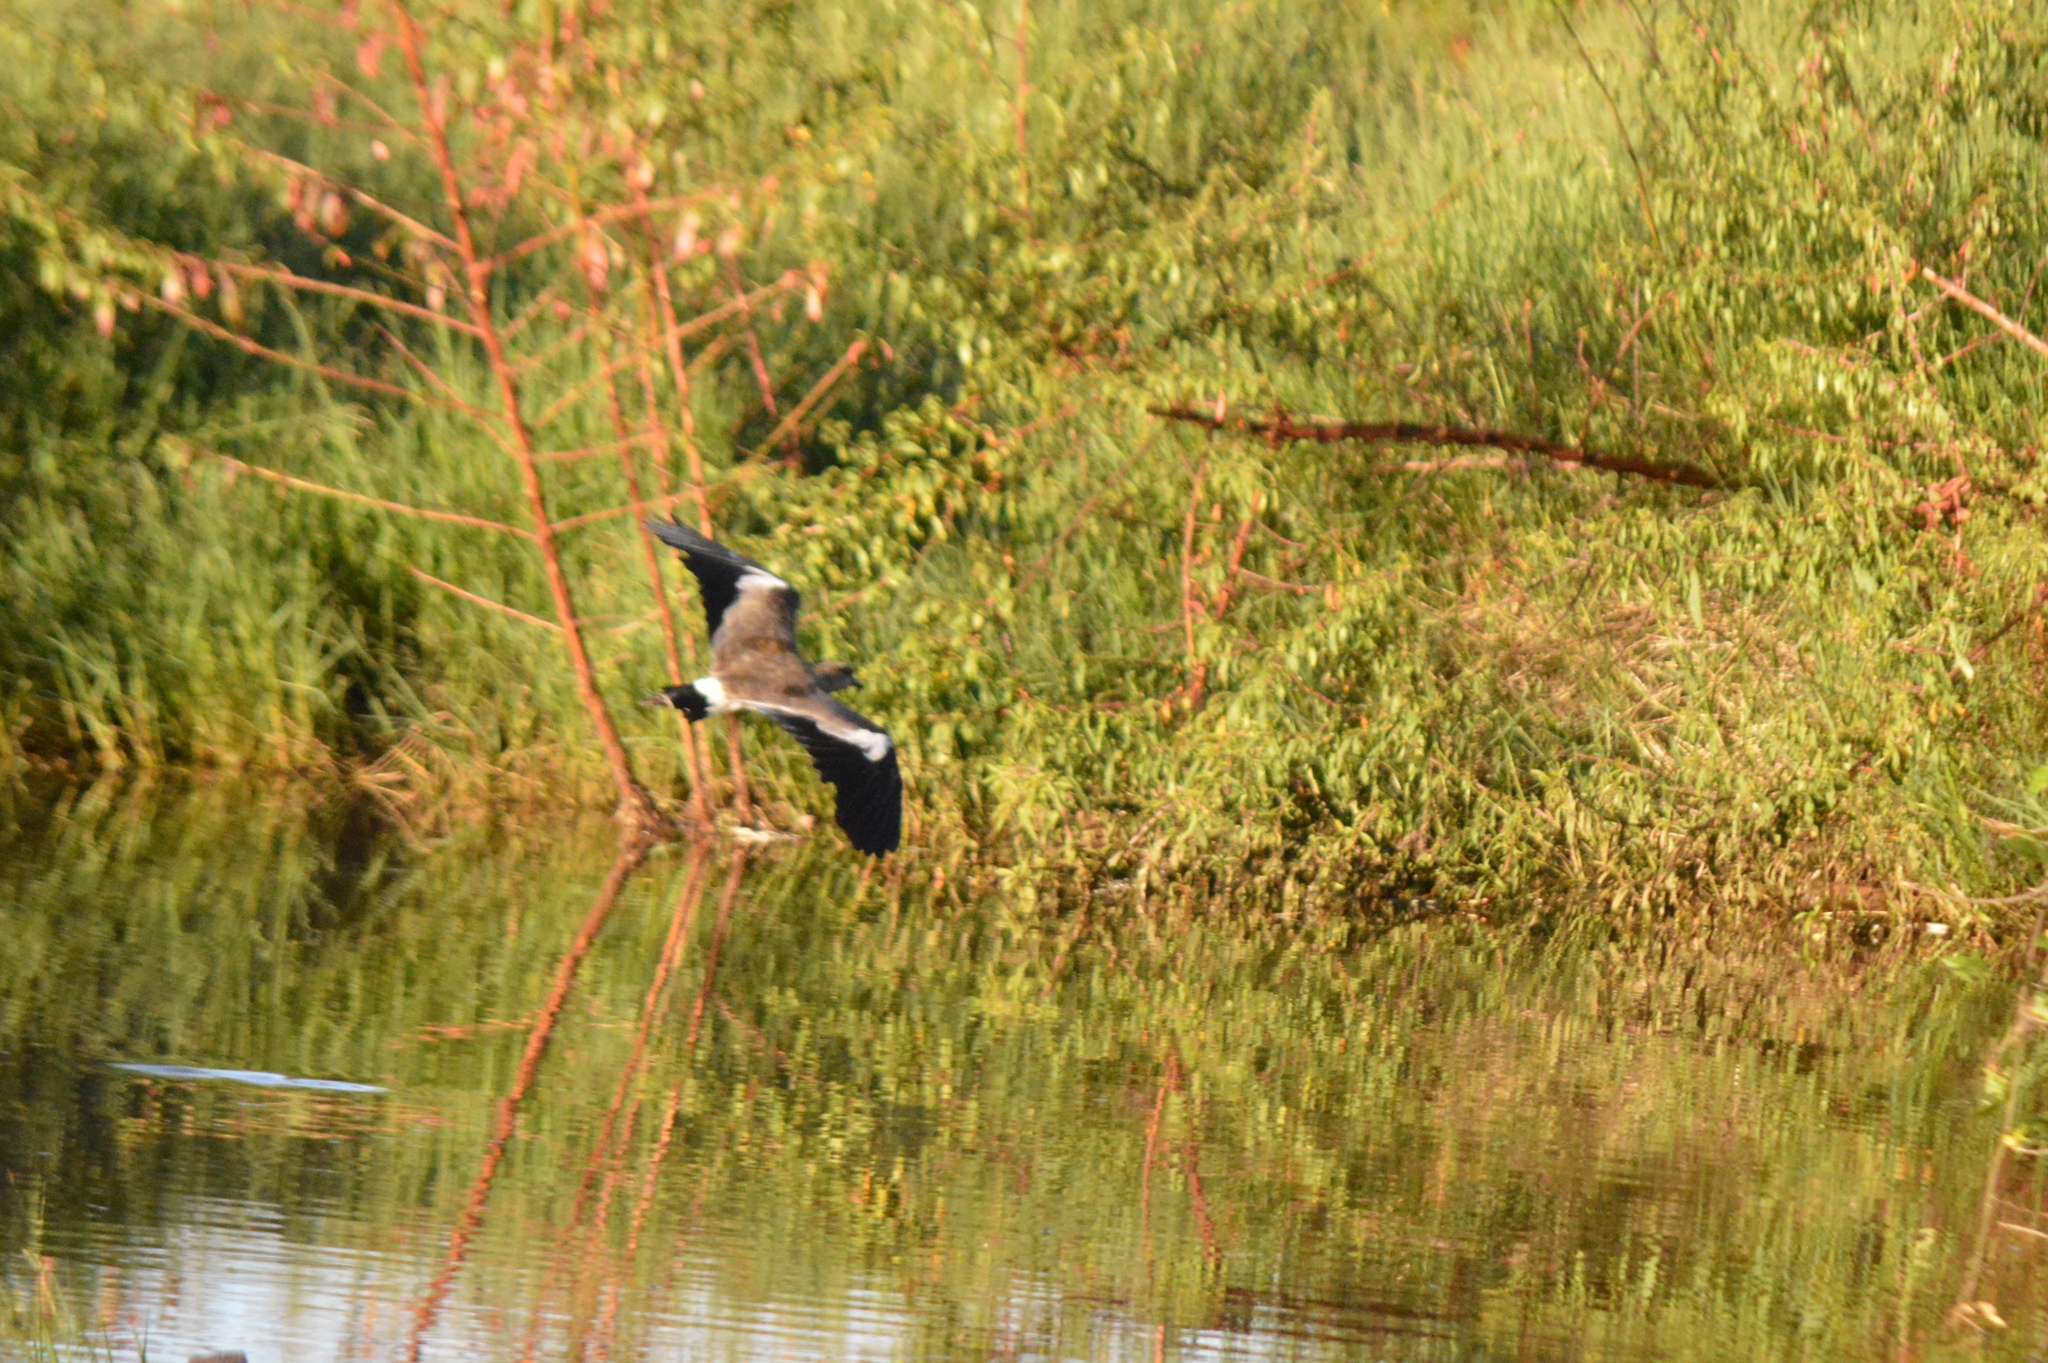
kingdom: Animalia
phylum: Chordata
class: Aves
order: Charadriiformes
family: Charadriidae
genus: Vanellus
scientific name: Vanellus chilensis
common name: Southern lapwing
